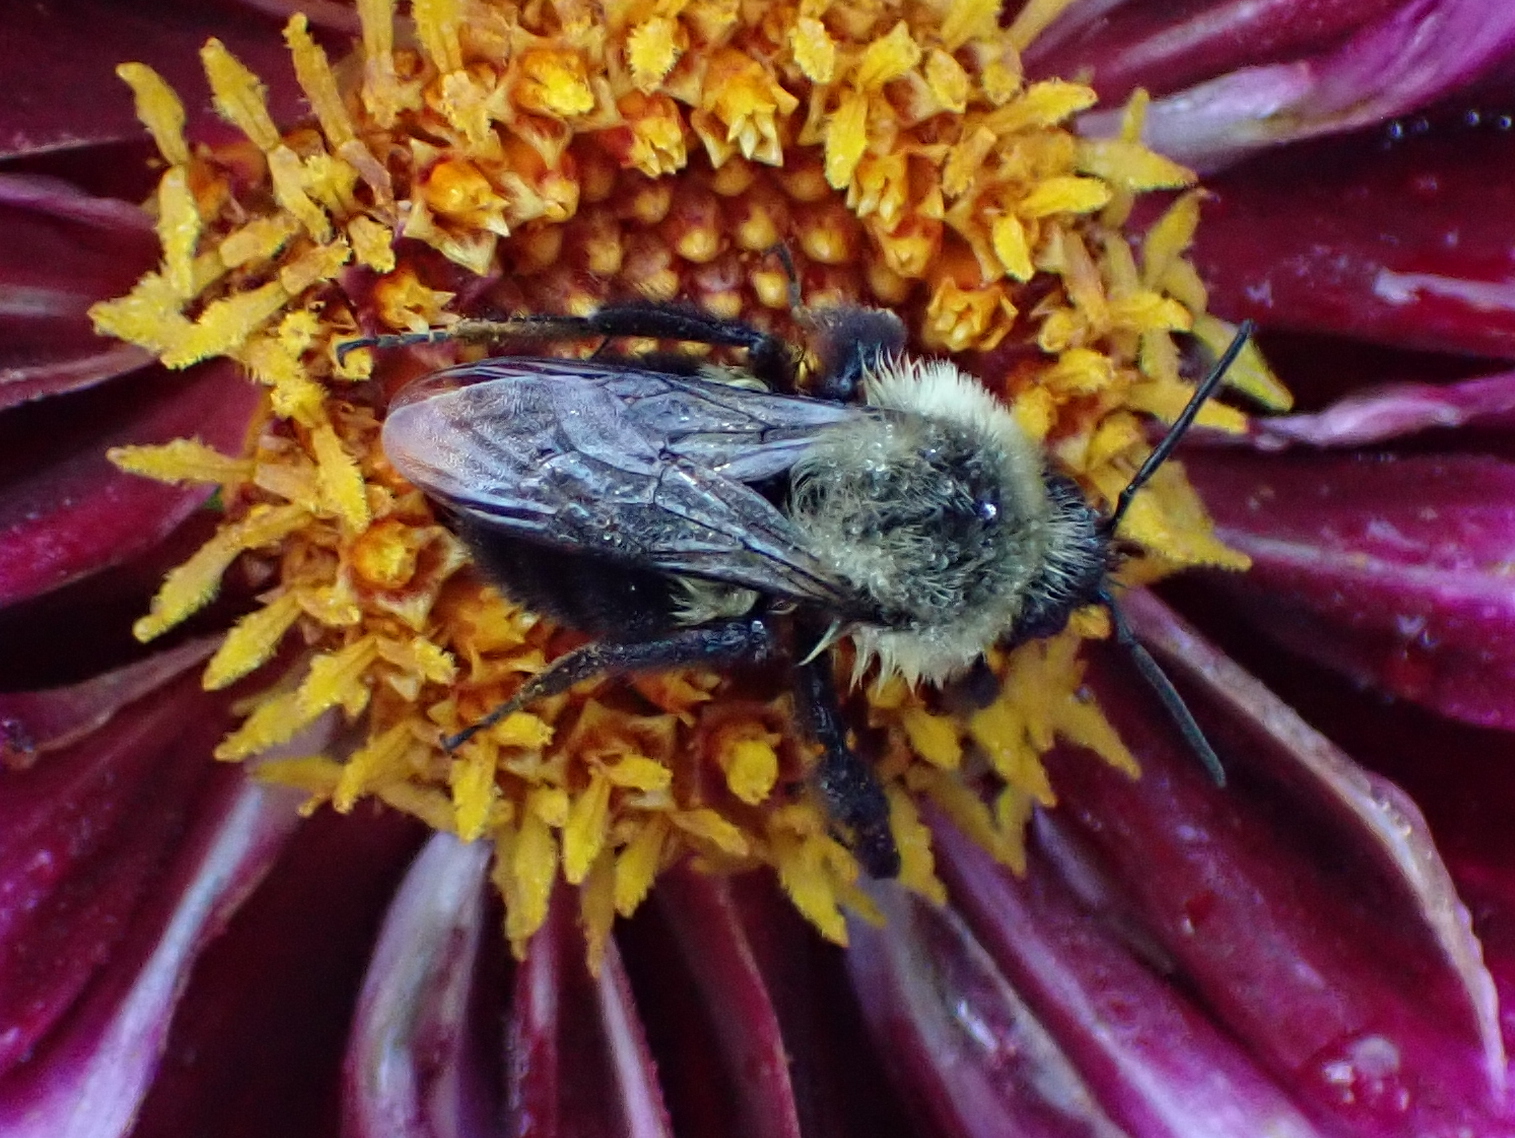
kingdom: Animalia
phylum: Arthropoda
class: Insecta
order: Hymenoptera
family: Apidae
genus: Bombus
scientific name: Bombus impatiens
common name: Common eastern bumble bee
